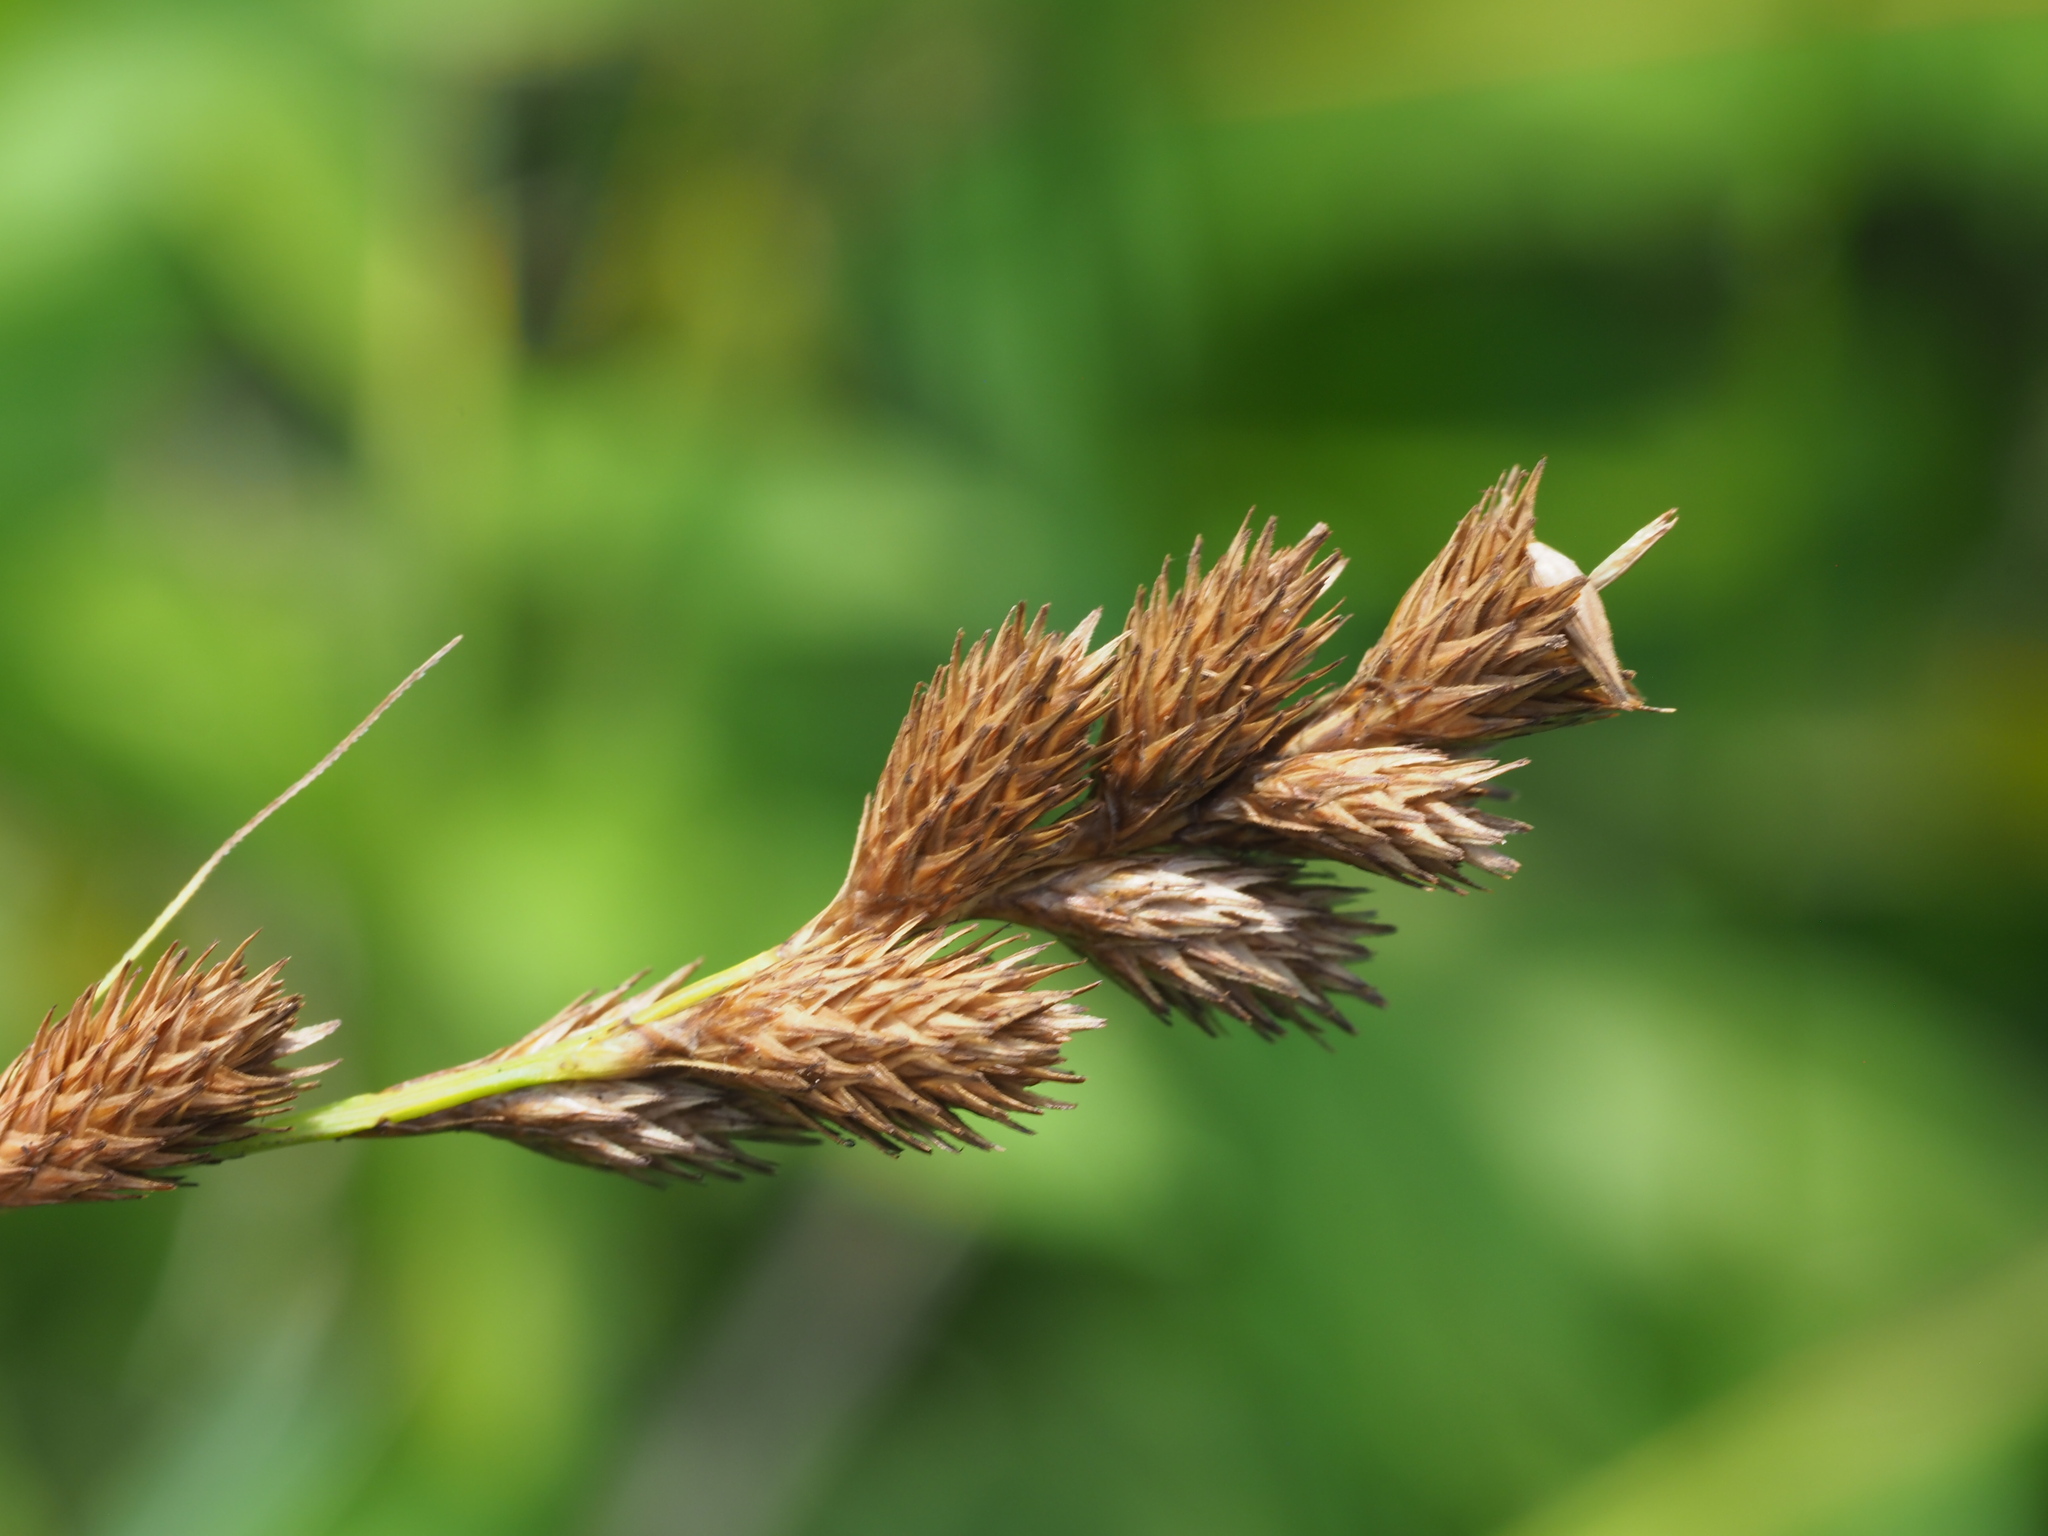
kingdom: Plantae
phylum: Tracheophyta
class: Liliopsida
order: Poales
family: Cyperaceae
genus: Carex
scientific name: Carex scoparia
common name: Broom sedge
